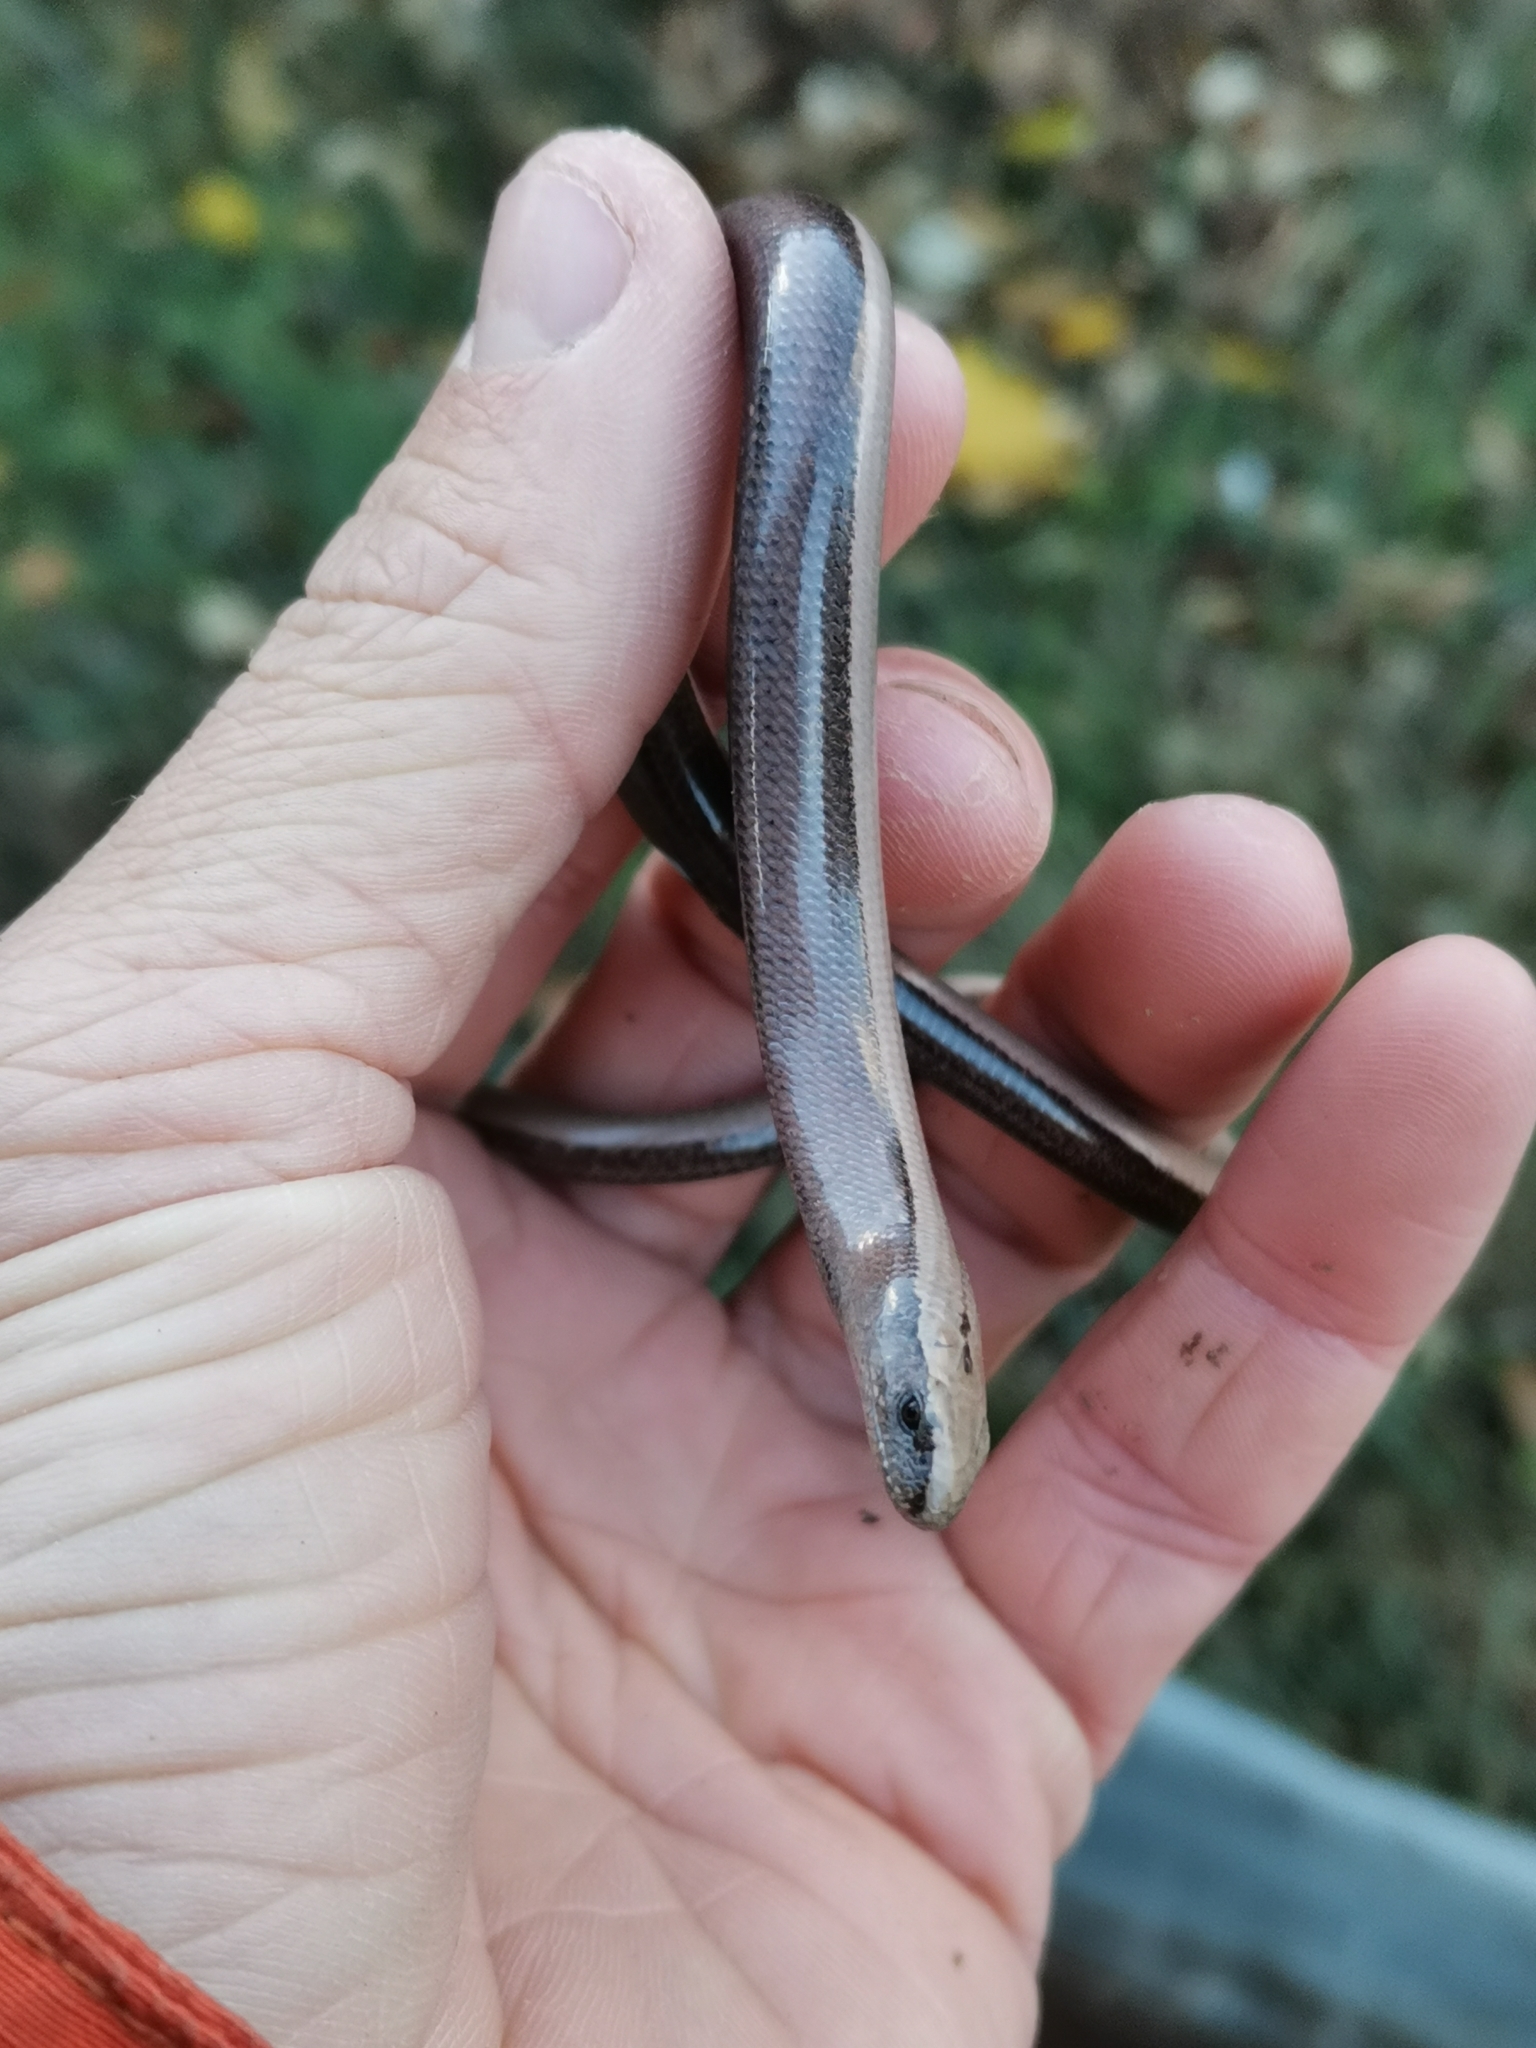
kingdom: Animalia
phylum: Chordata
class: Squamata
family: Anguidae
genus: Anguis
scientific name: Anguis fragilis
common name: Slow worm
